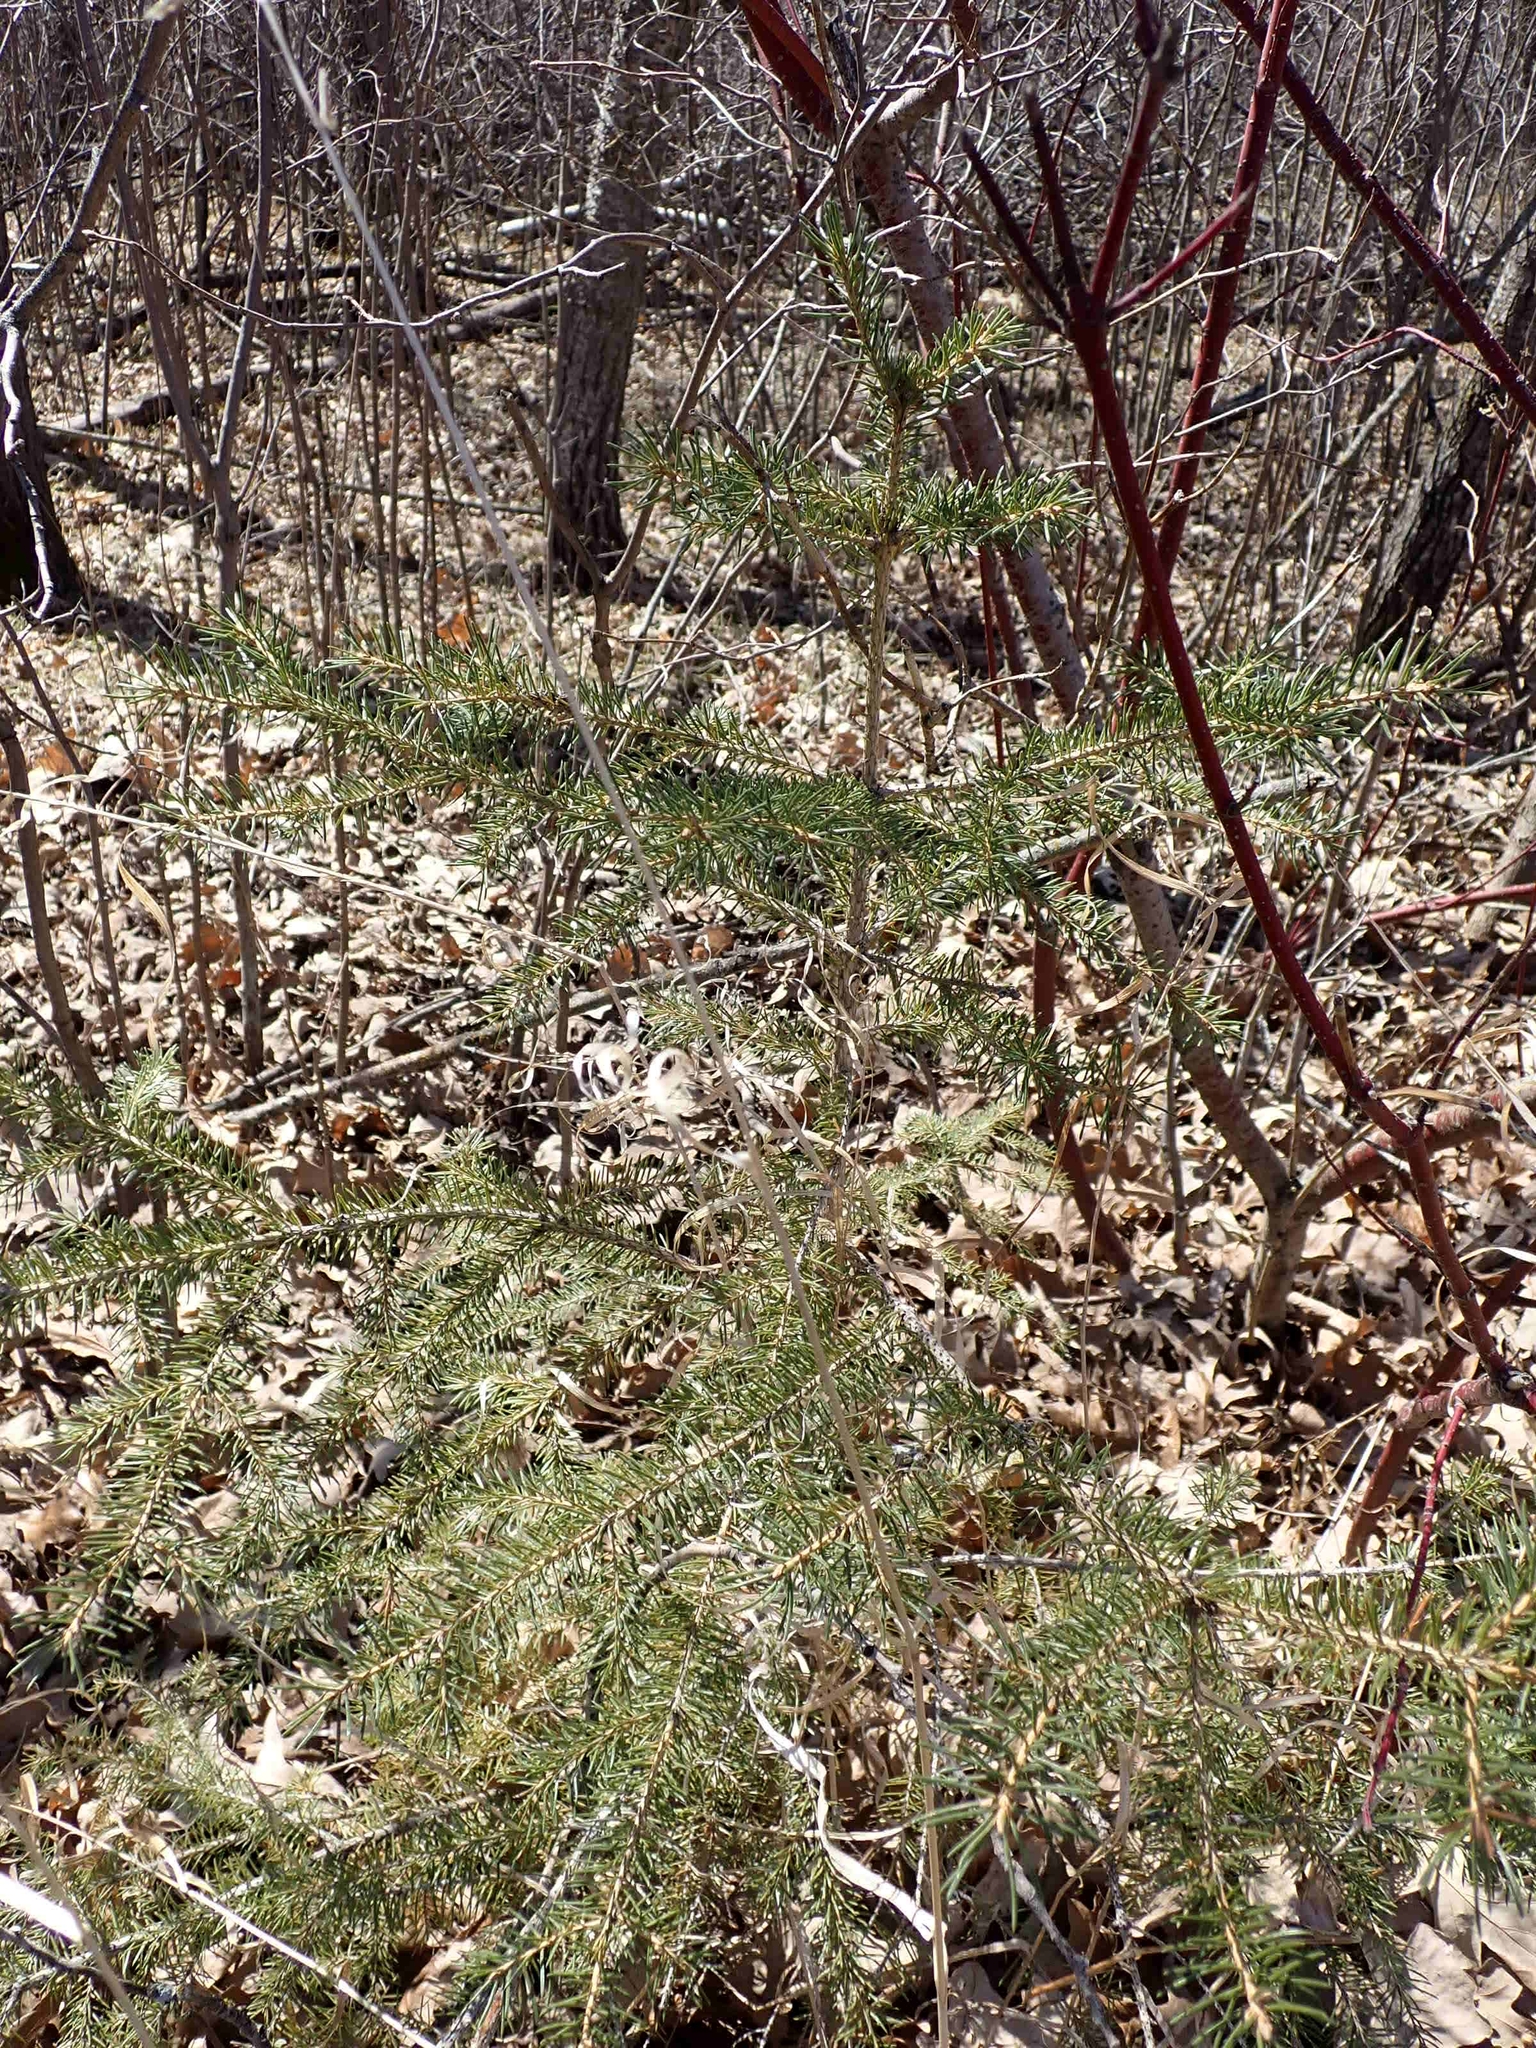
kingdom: Plantae
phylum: Tracheophyta
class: Pinopsida
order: Pinales
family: Pinaceae
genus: Picea
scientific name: Picea glauca
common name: White spruce
